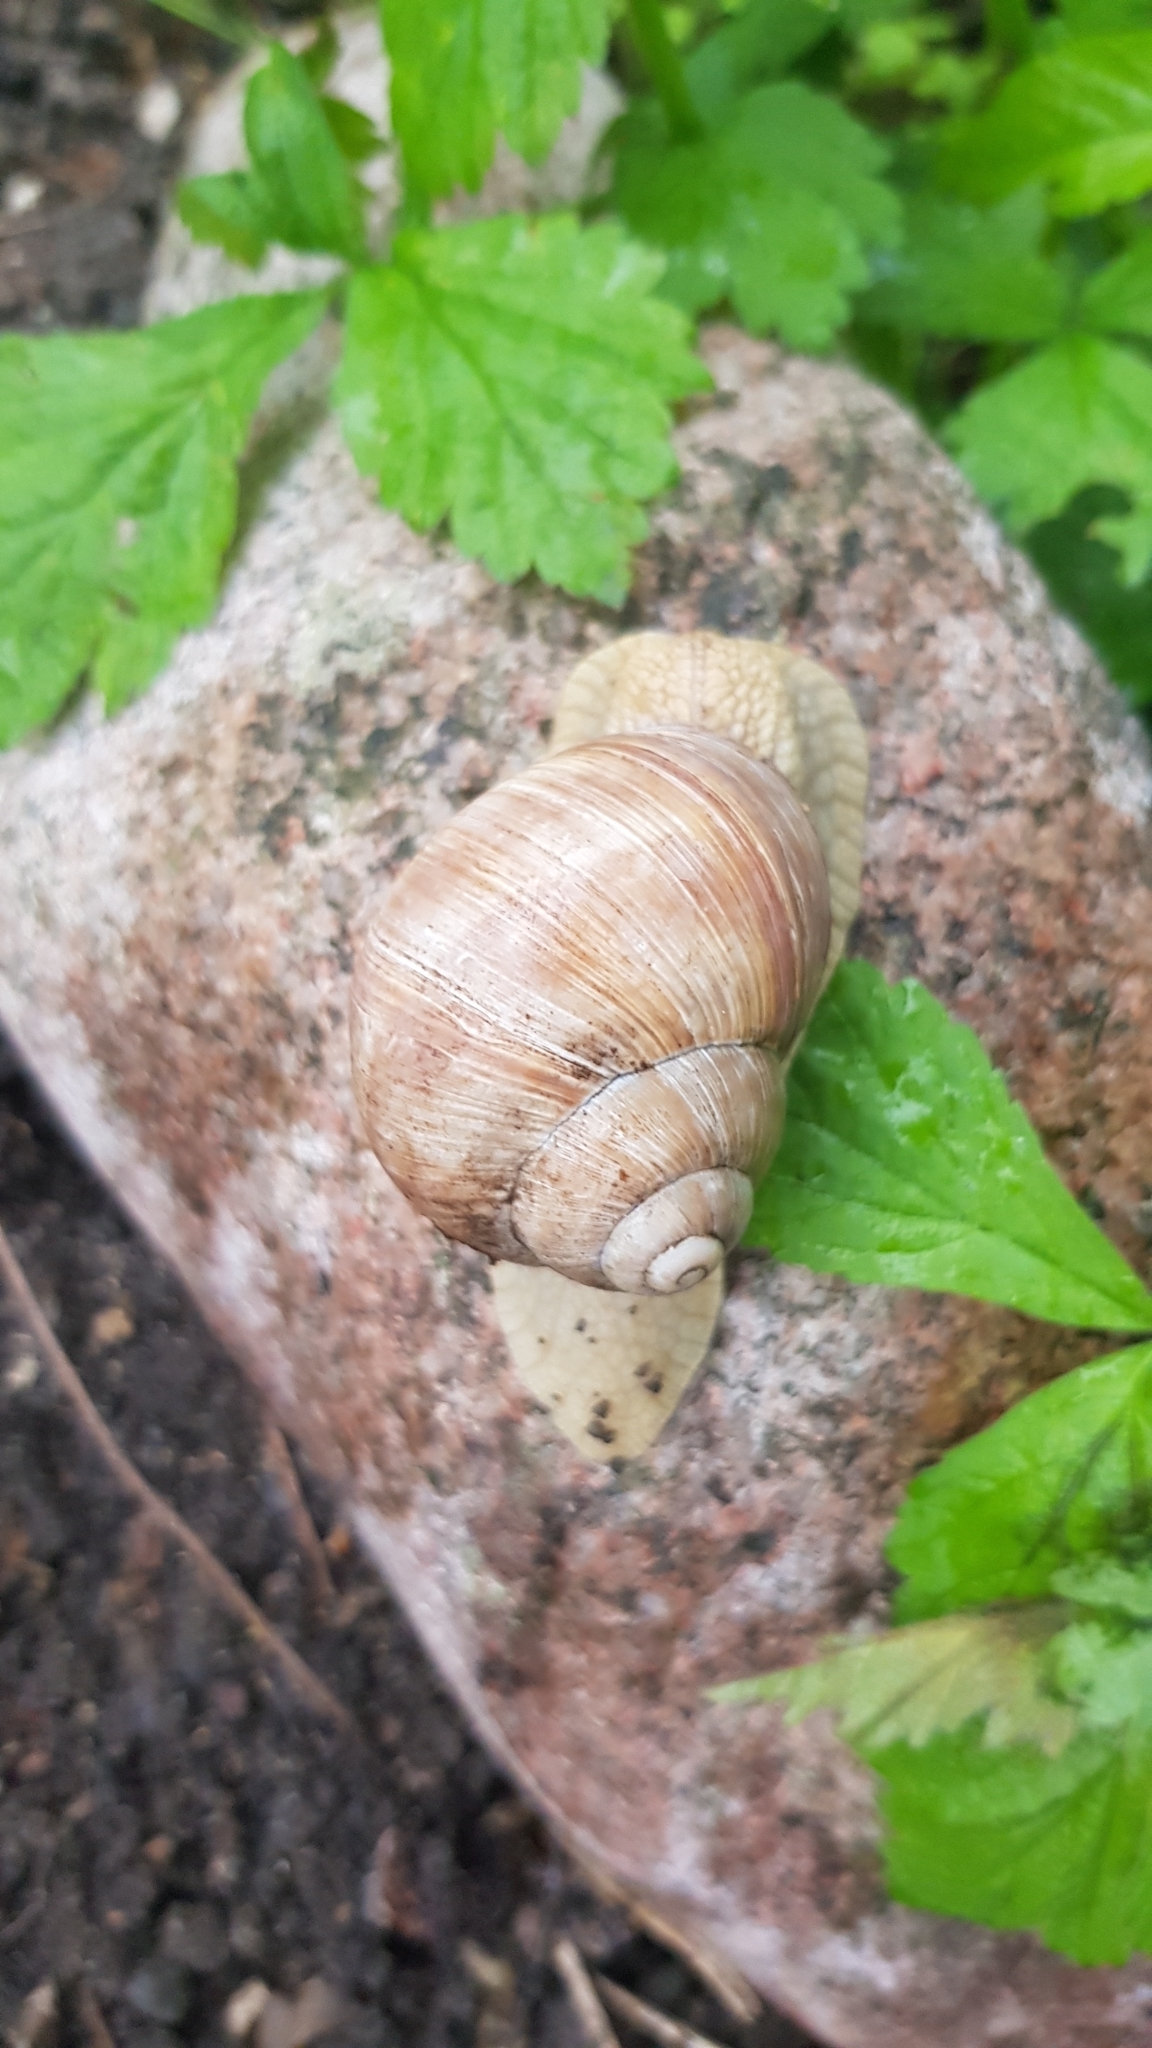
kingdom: Animalia
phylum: Mollusca
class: Gastropoda
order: Stylommatophora
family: Helicidae
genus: Helix
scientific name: Helix pomatia
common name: Roman snail
